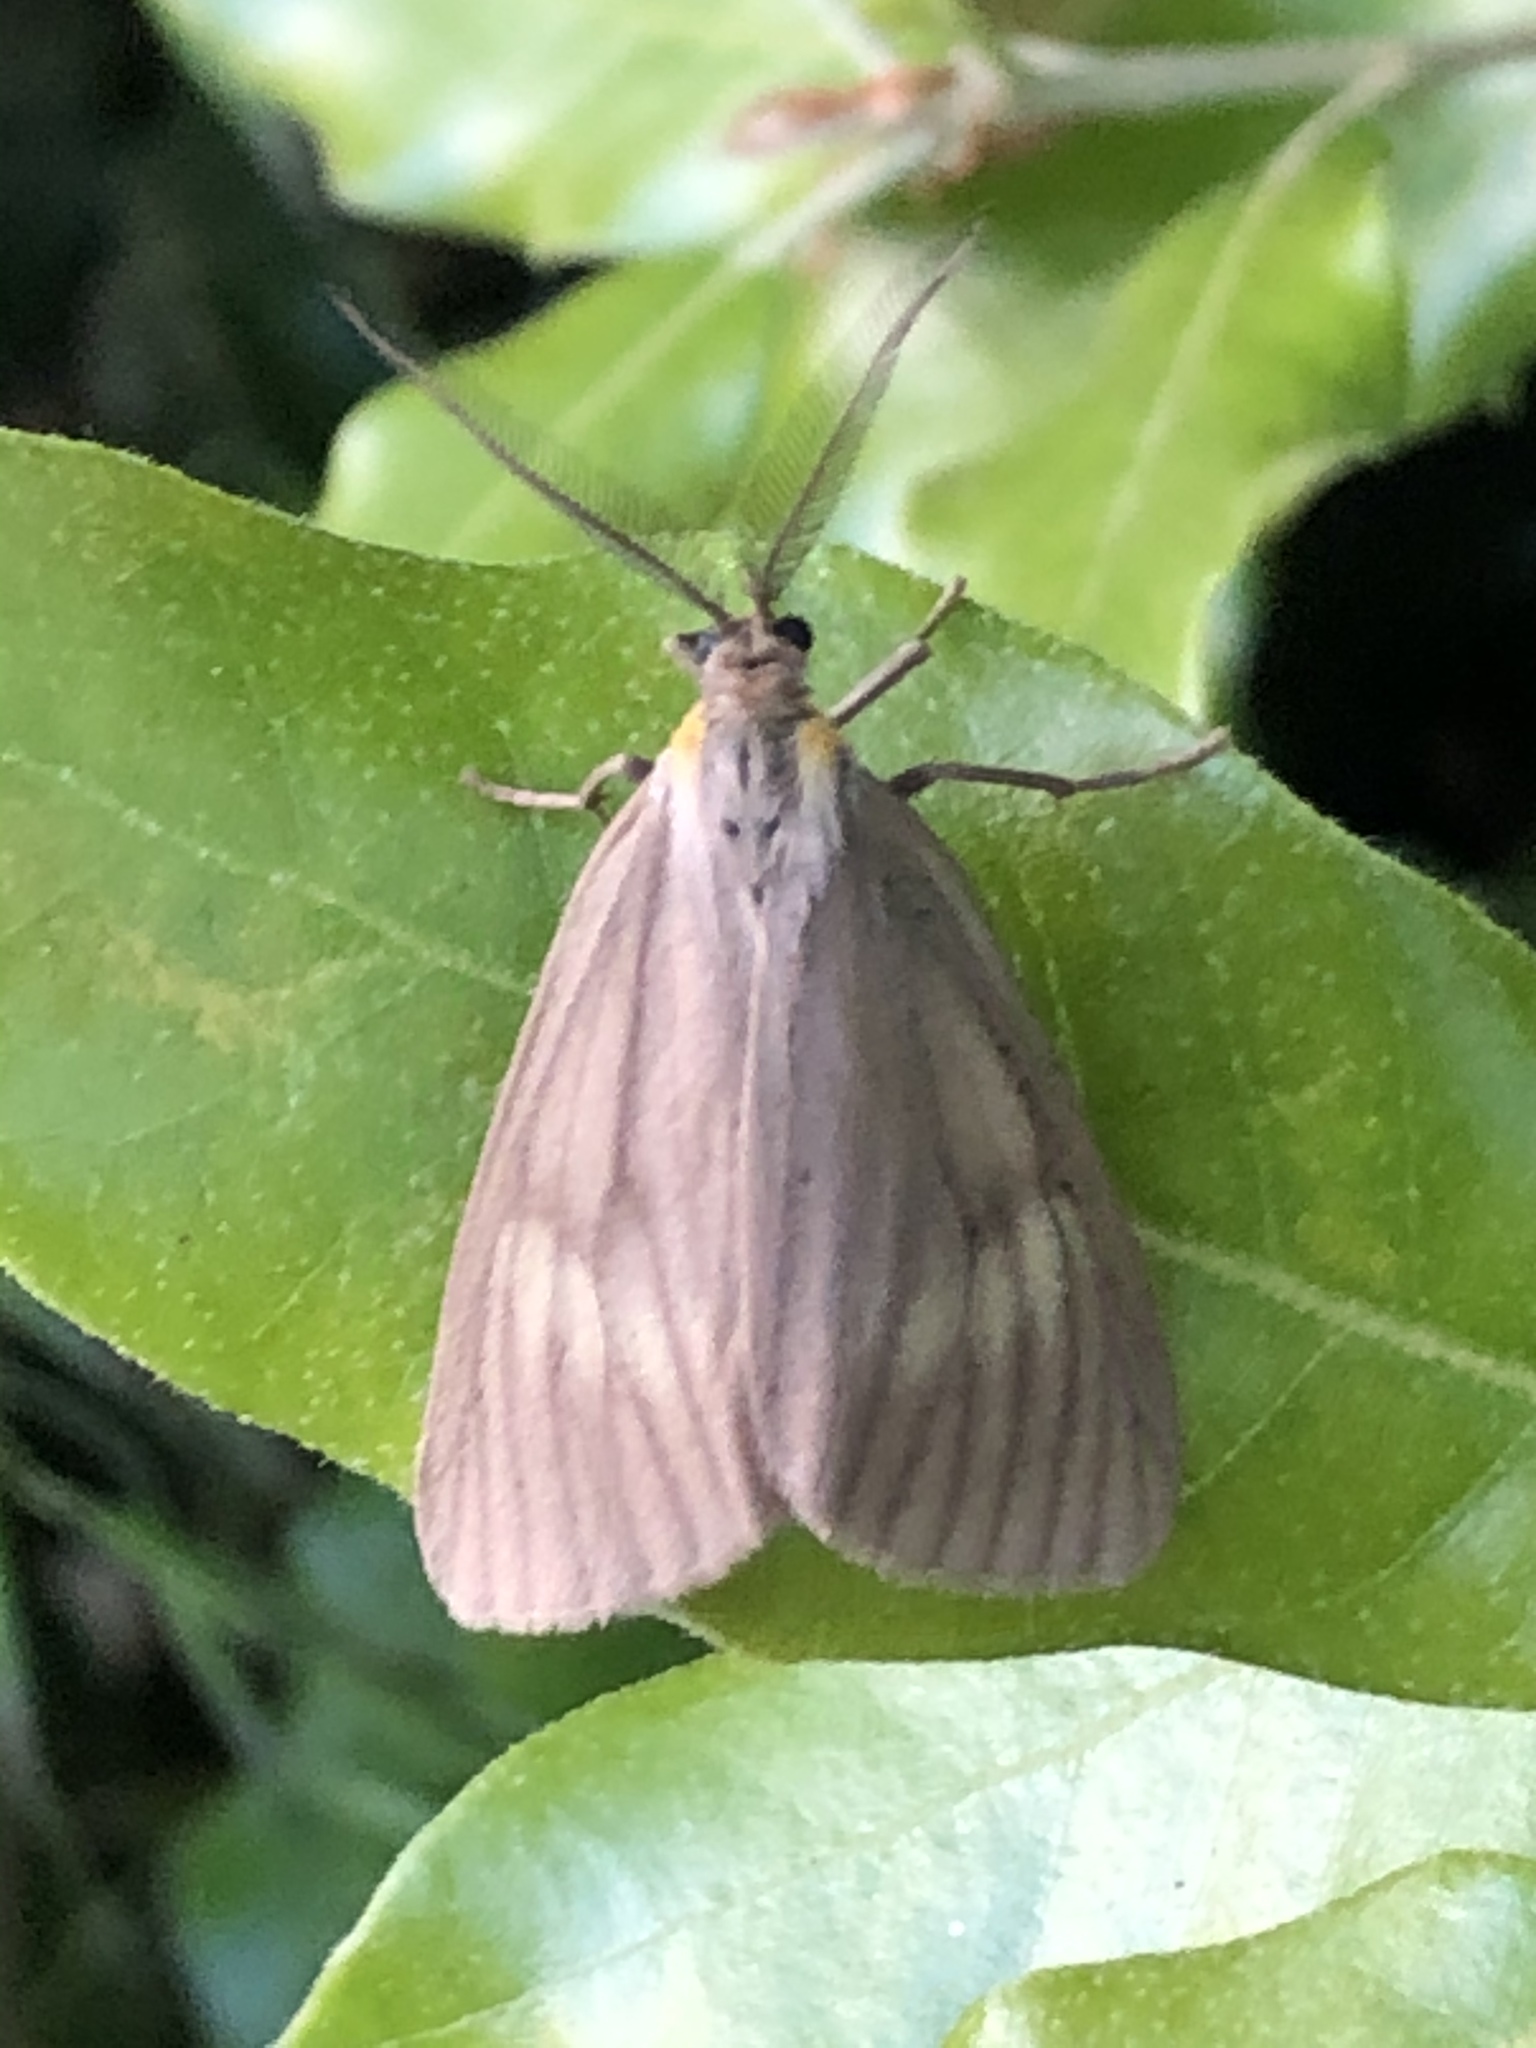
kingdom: Animalia
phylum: Arthropoda
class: Insecta
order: Lepidoptera
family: Notodontidae
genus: Phryganidia
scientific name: Phryganidia californica
